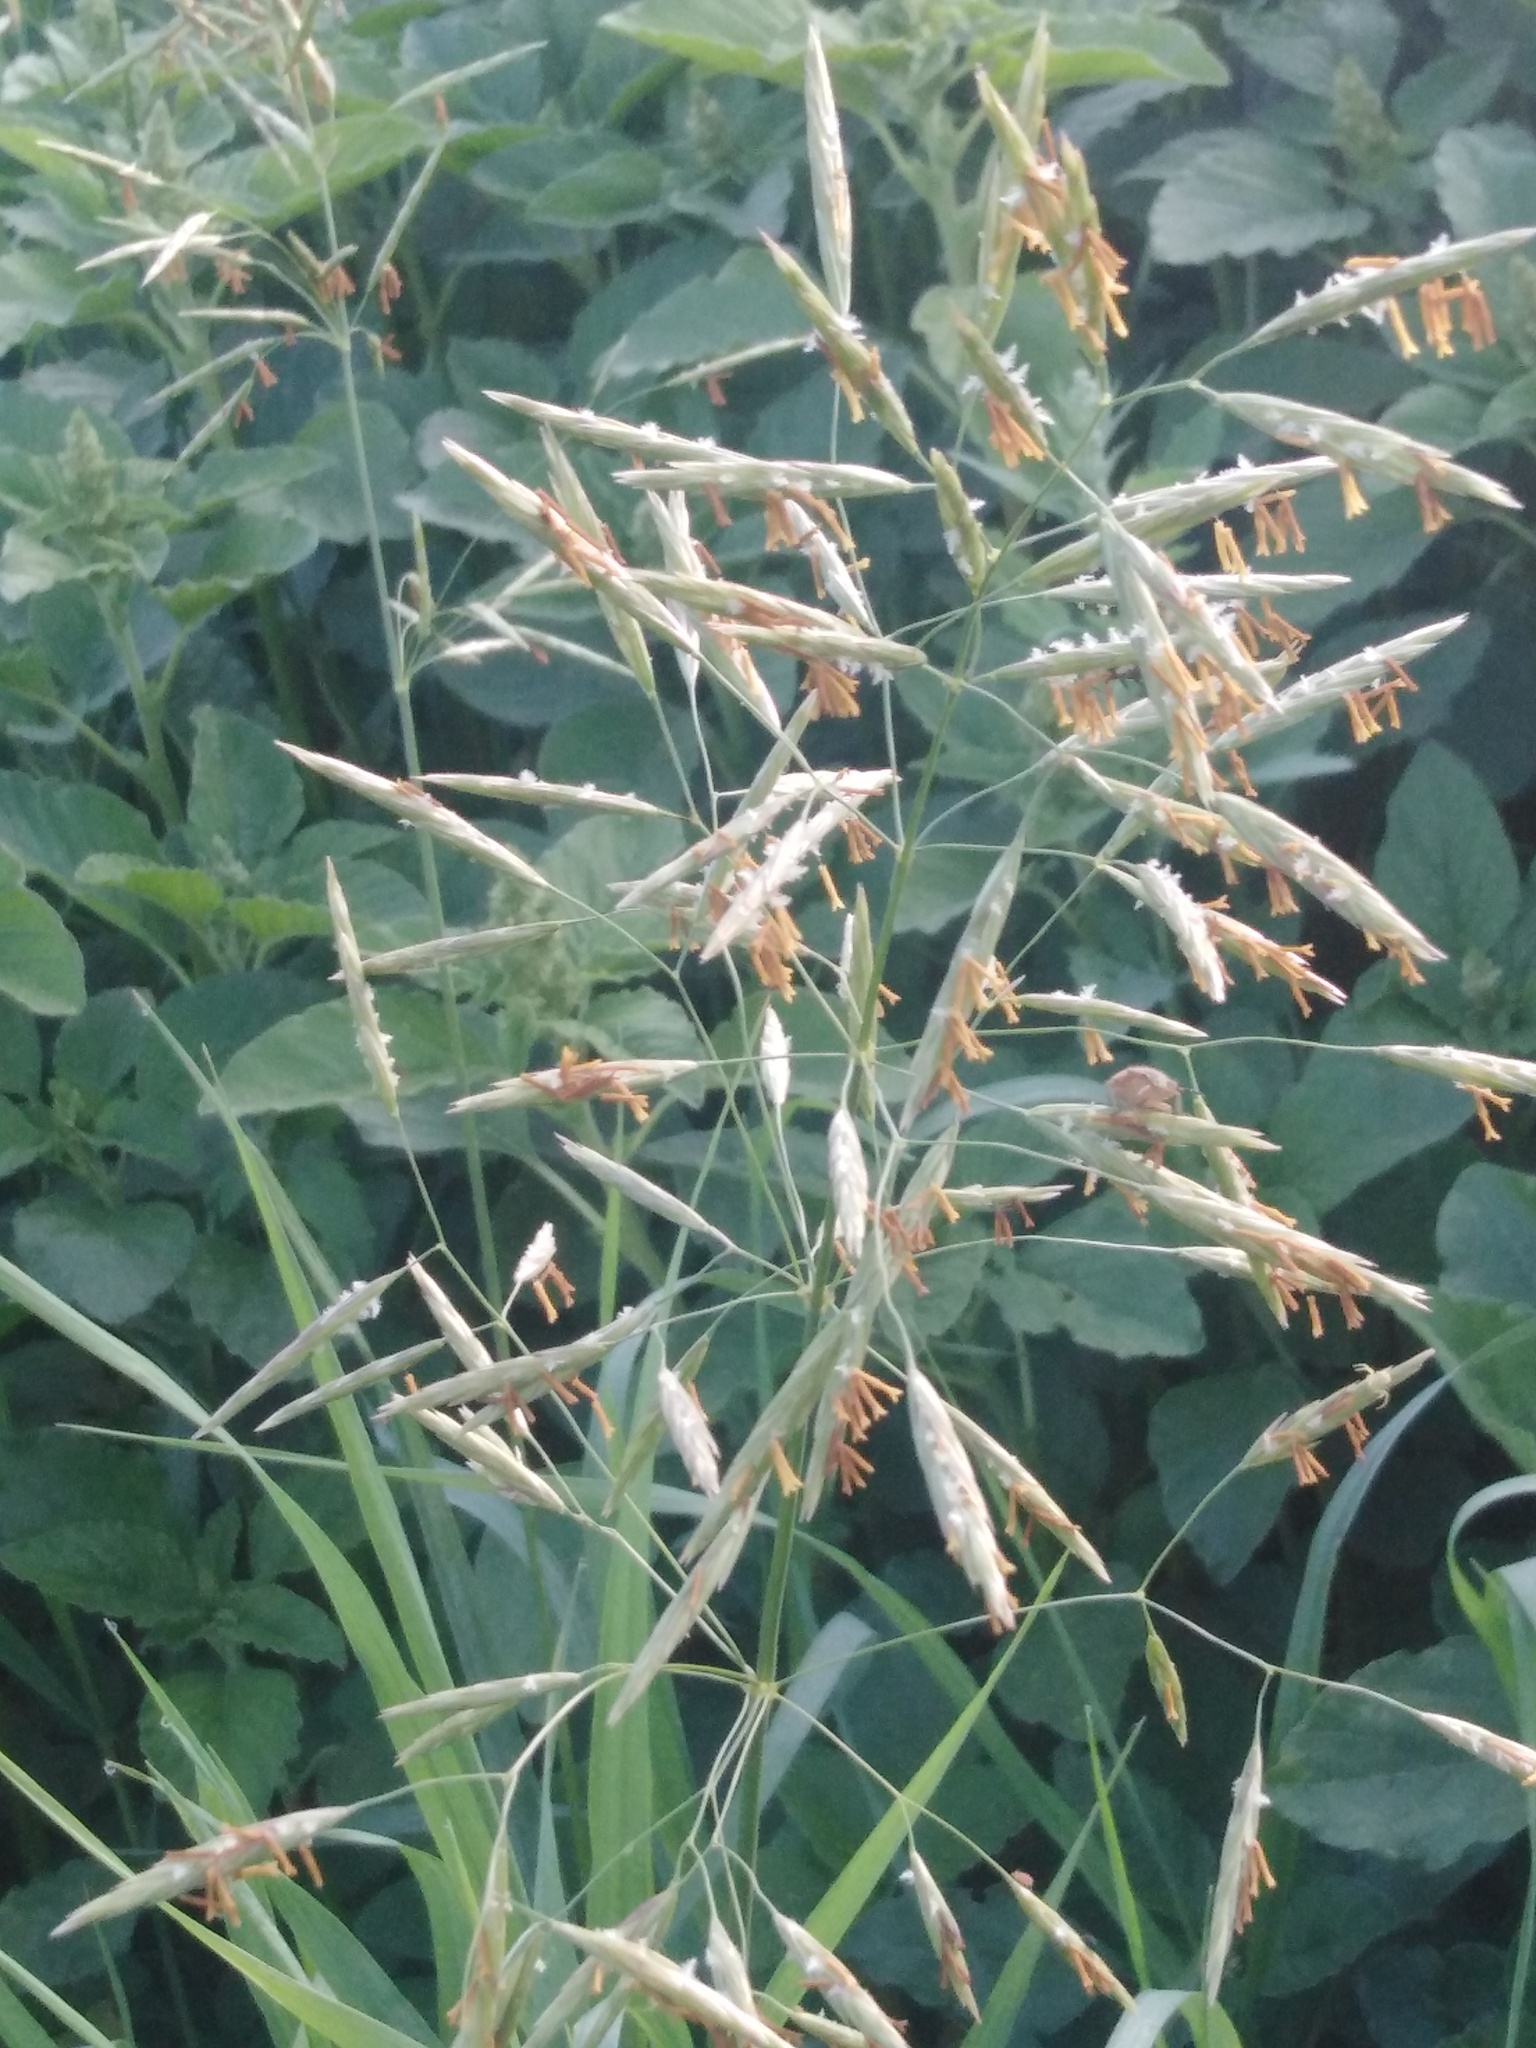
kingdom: Plantae
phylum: Tracheophyta
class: Liliopsida
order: Poales
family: Poaceae
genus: Bromus
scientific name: Bromus inermis
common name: Smooth brome
